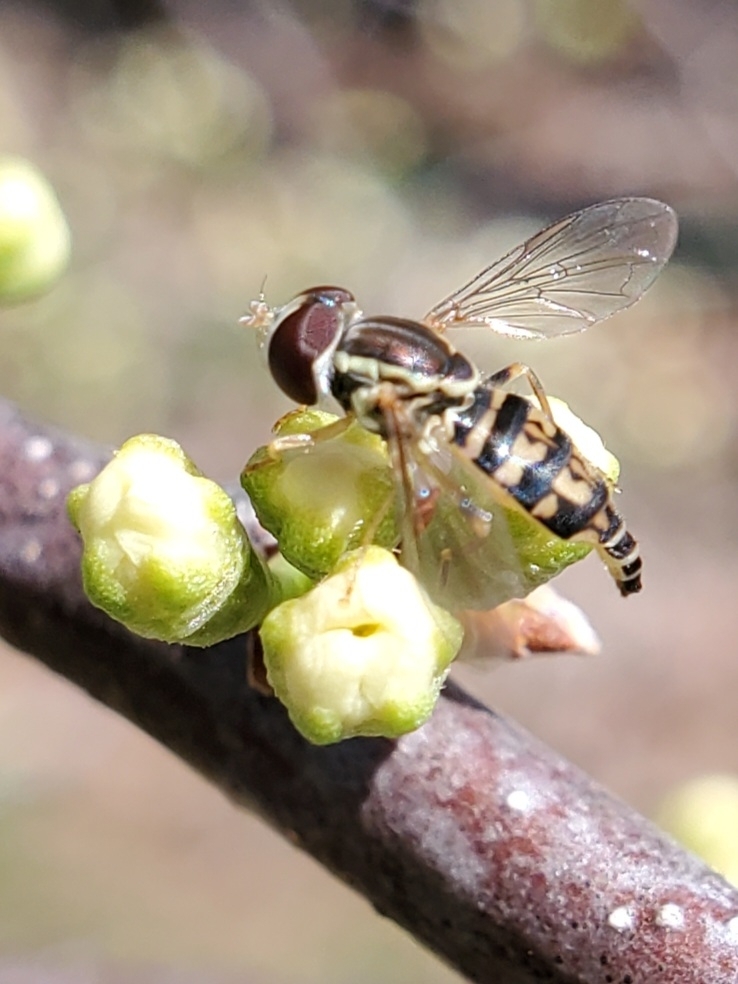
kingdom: Animalia
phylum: Arthropoda
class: Insecta
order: Diptera
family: Syrphidae
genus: Toxomerus
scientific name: Toxomerus geminatus
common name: Eastern calligrapher
